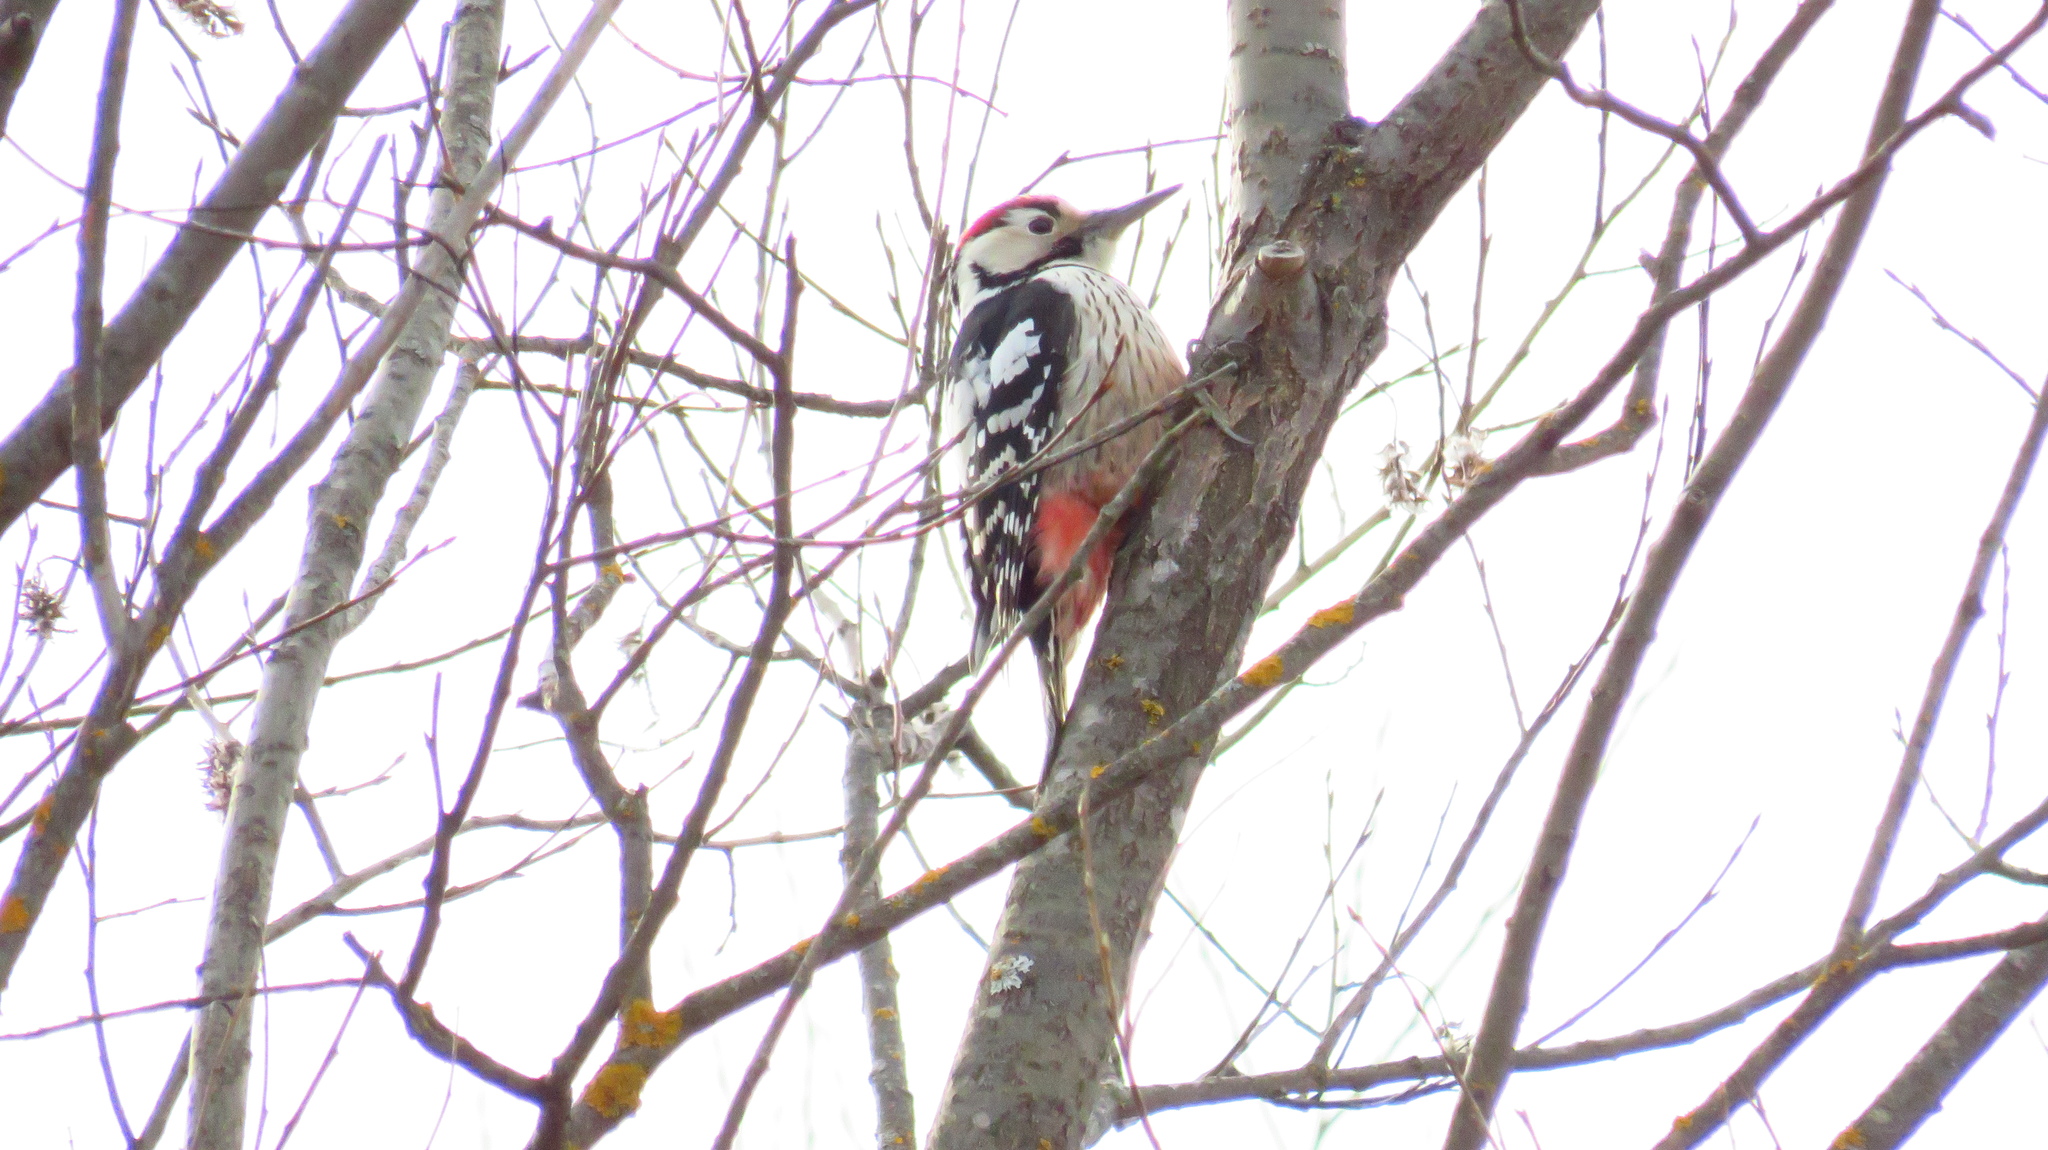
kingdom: Animalia
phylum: Chordata
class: Aves
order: Piciformes
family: Picidae
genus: Dendrocopos
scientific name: Dendrocopos leucotos
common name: White-backed woodpecker
